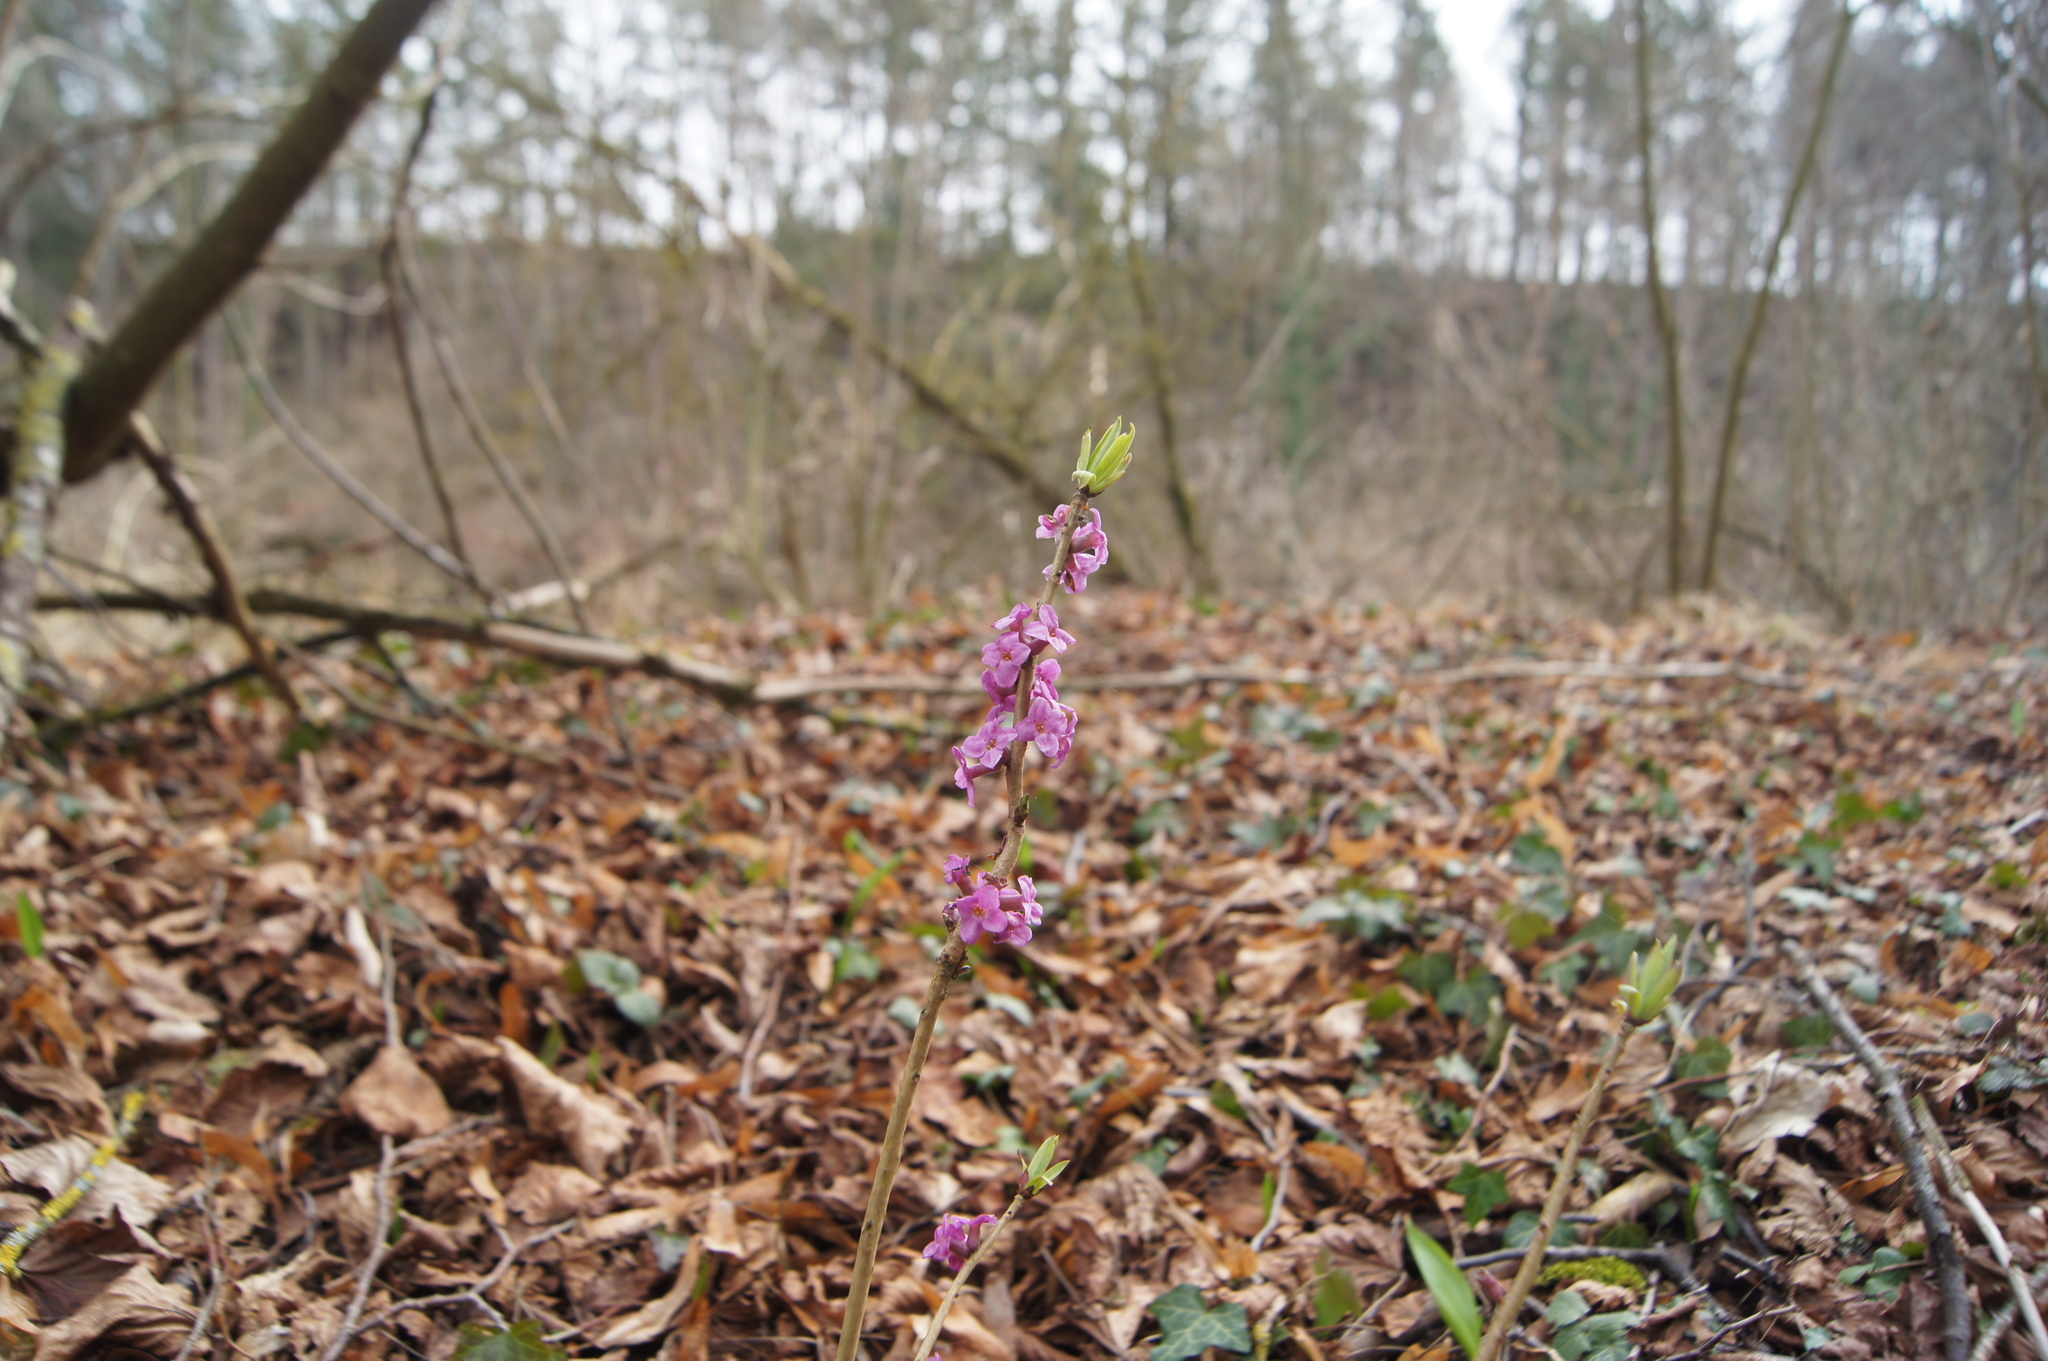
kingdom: Plantae
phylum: Tracheophyta
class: Magnoliopsida
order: Malvales
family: Thymelaeaceae
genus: Daphne
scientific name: Daphne mezereum
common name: Mezereon
